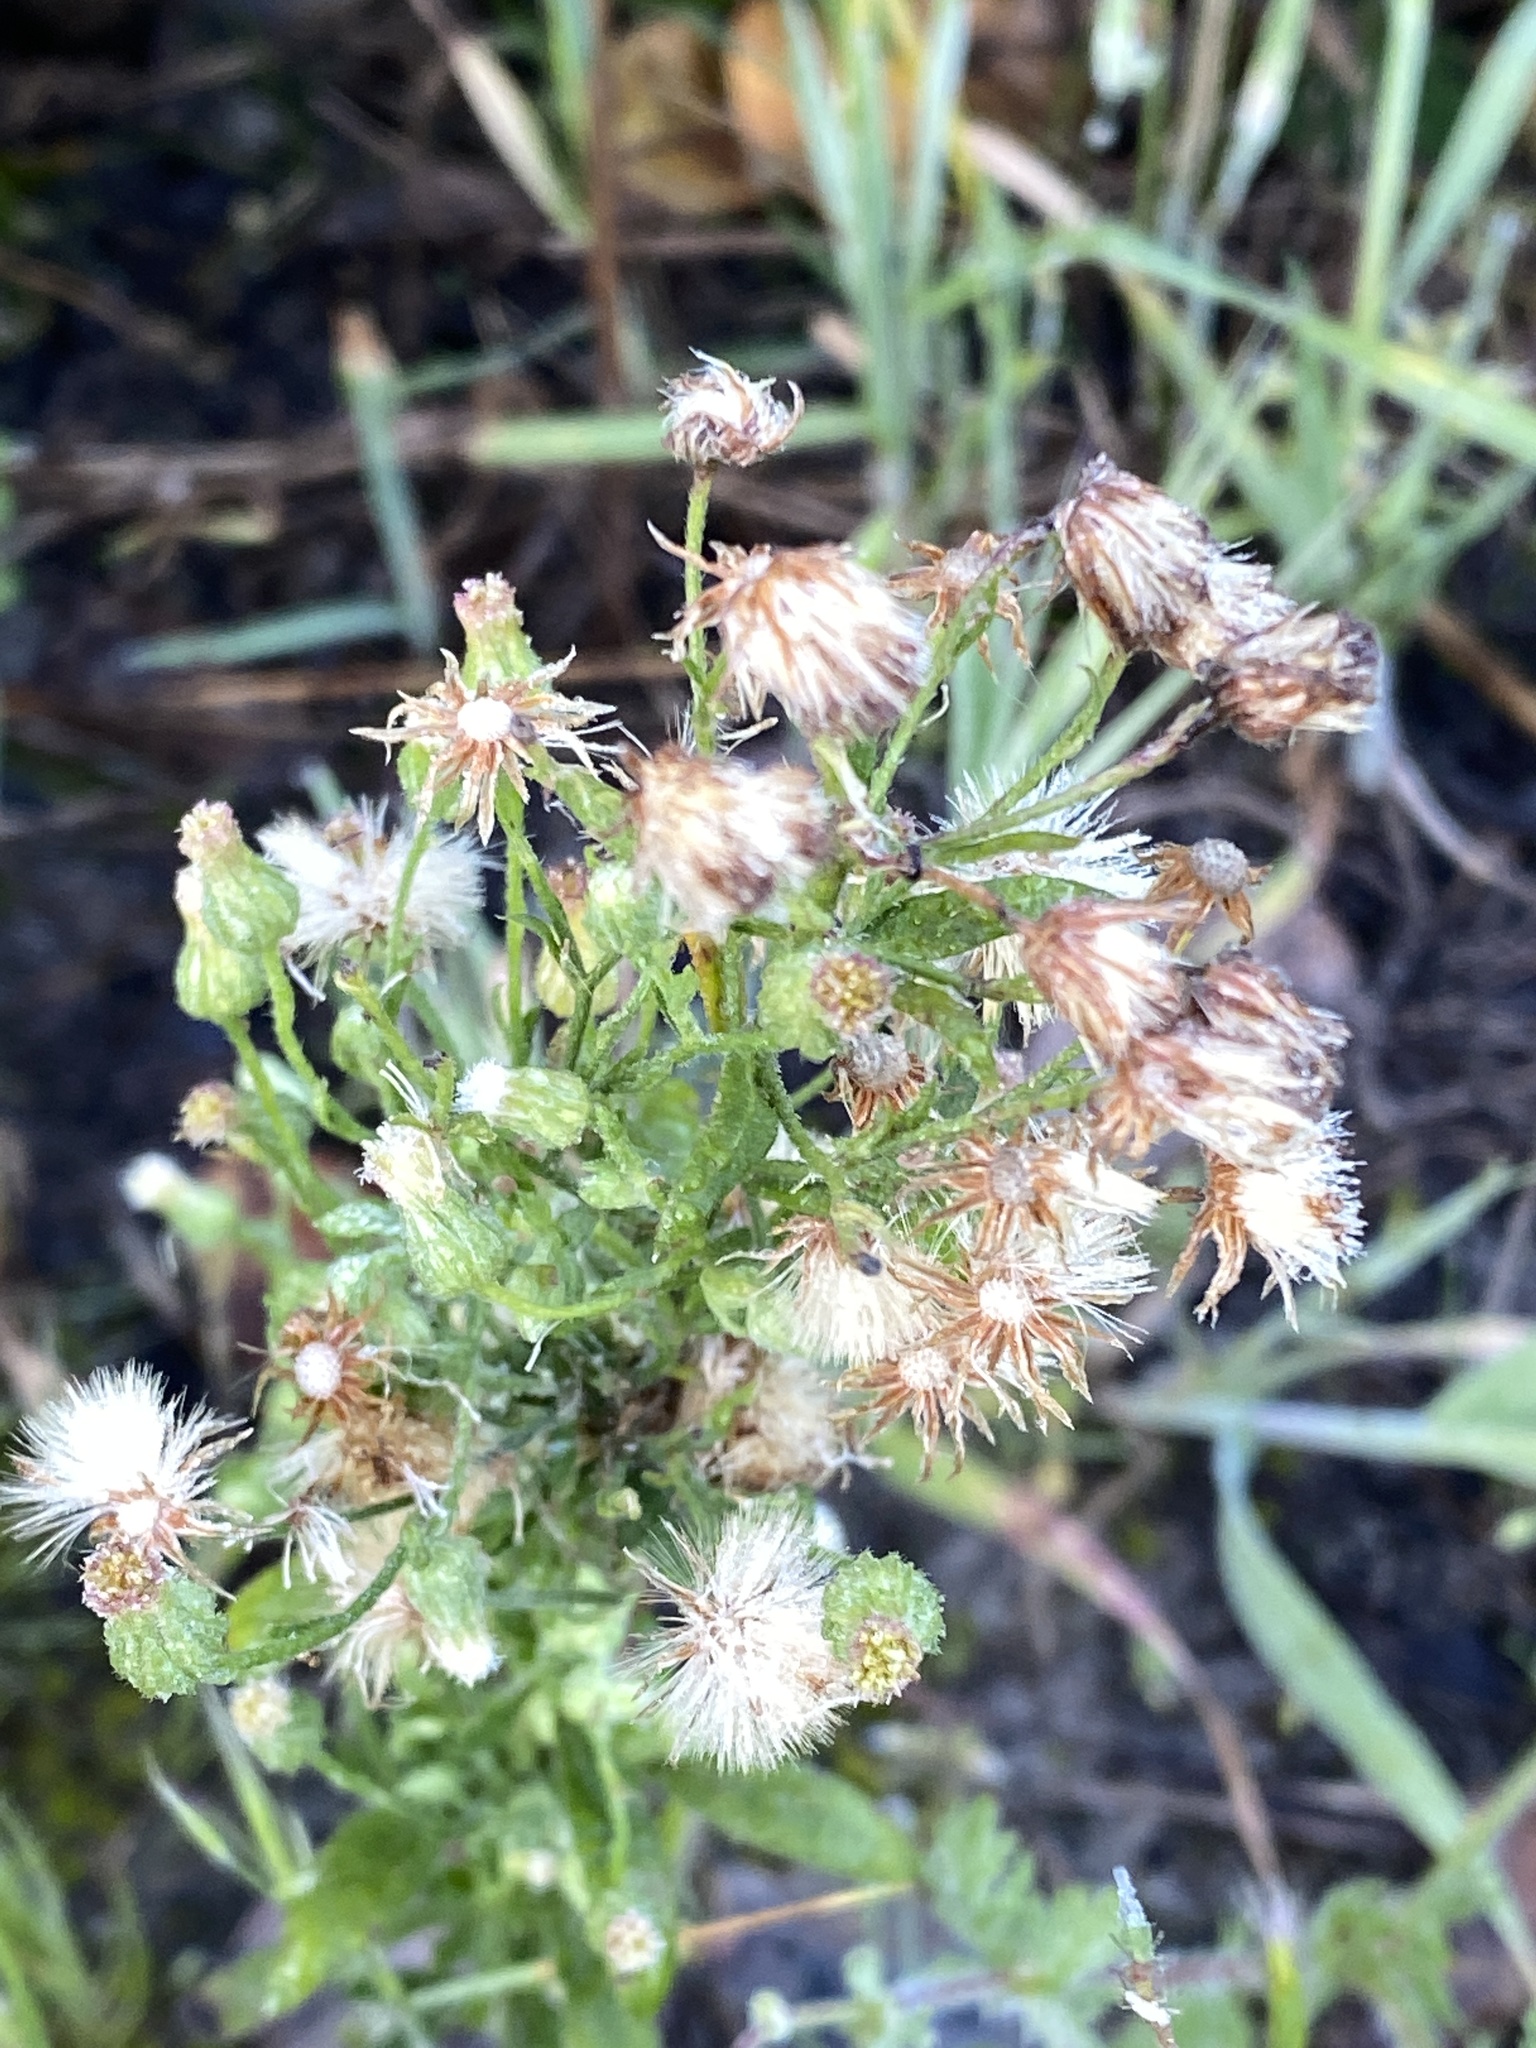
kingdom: Plantae
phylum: Tracheophyta
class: Magnoliopsida
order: Asterales
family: Asteraceae
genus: Erigeron
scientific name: Erigeron sumatrensis
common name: Daisy
